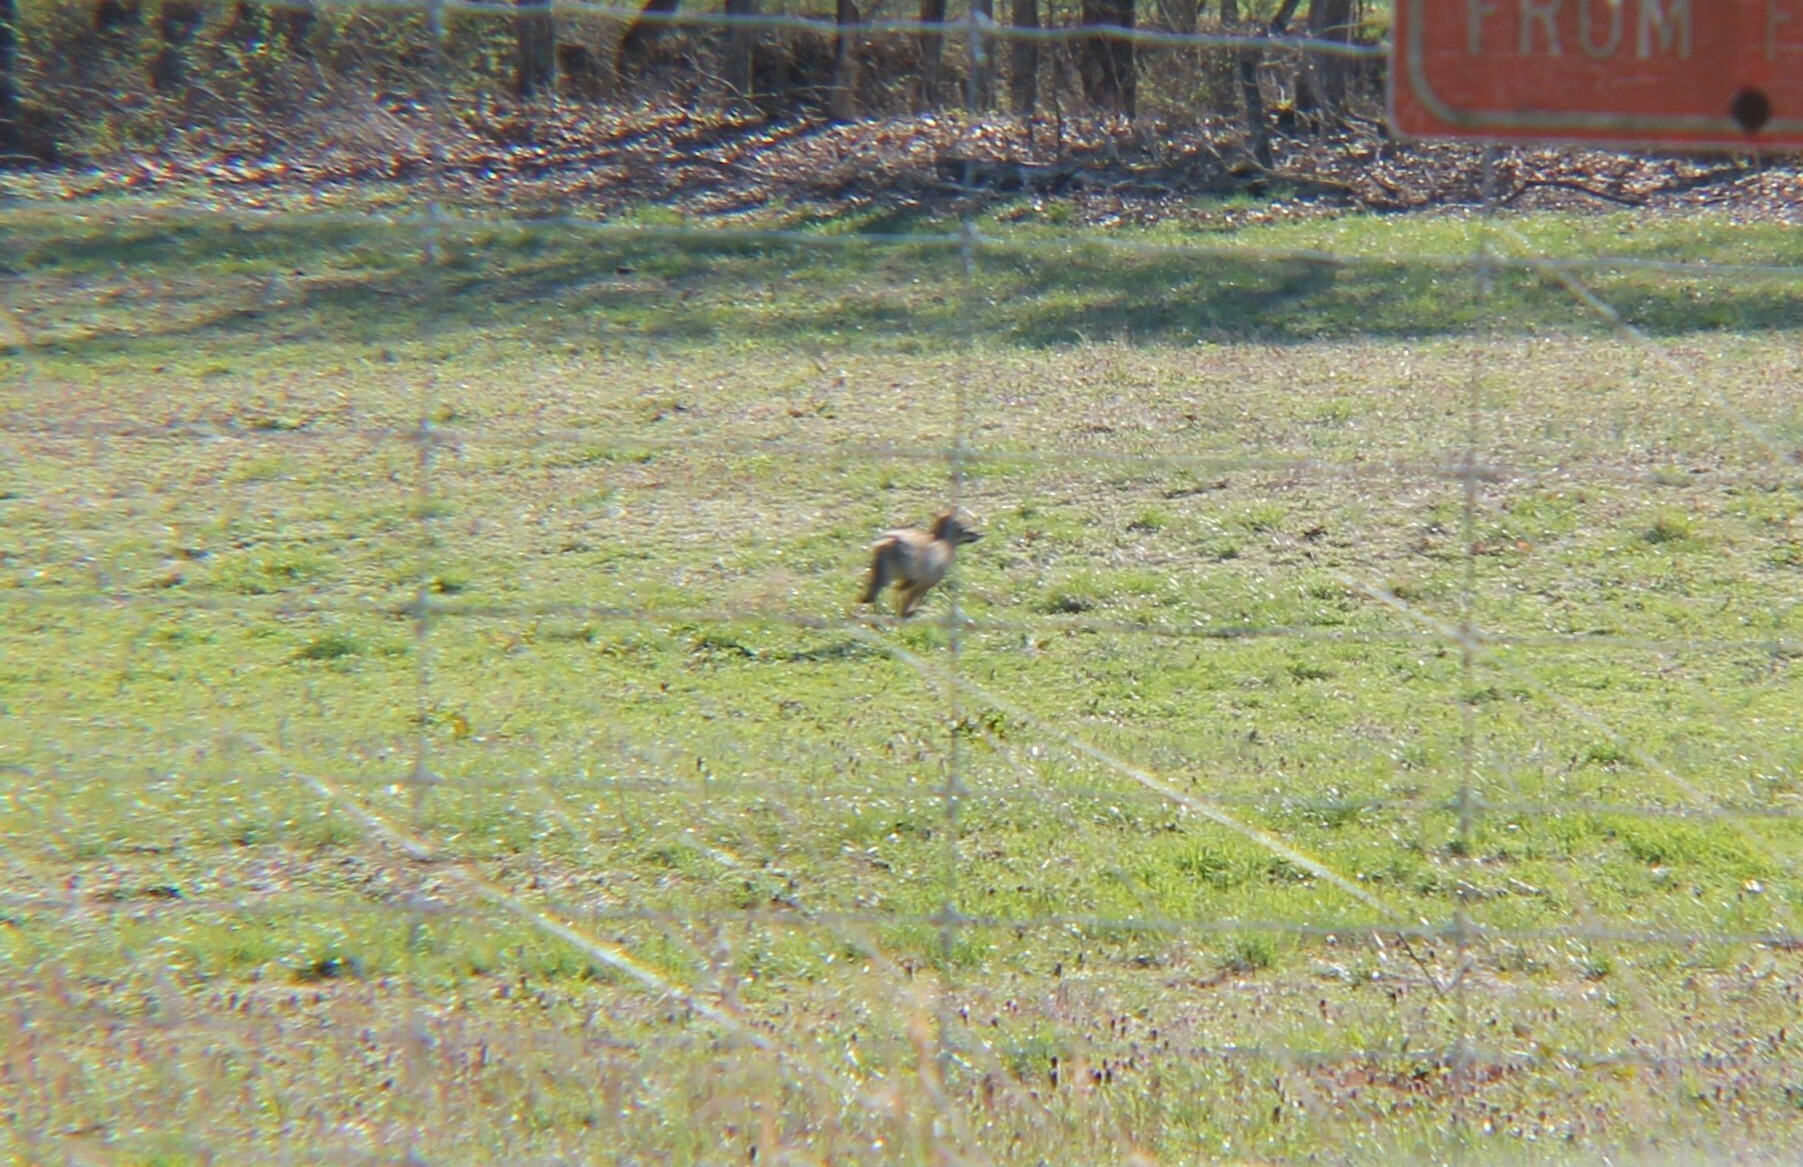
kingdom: Animalia
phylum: Chordata
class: Mammalia
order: Carnivora
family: Canidae
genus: Canis
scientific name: Canis latrans
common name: Coyote
